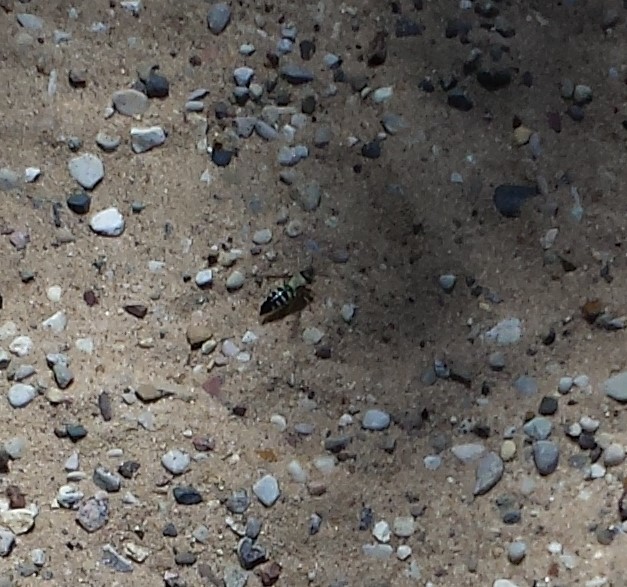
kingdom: Animalia
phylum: Arthropoda
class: Insecta
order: Hymenoptera
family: Crabronidae
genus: Bicyrtes
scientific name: Bicyrtes quadrifasciatus
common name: Four-banded stink bug hunter wasp
